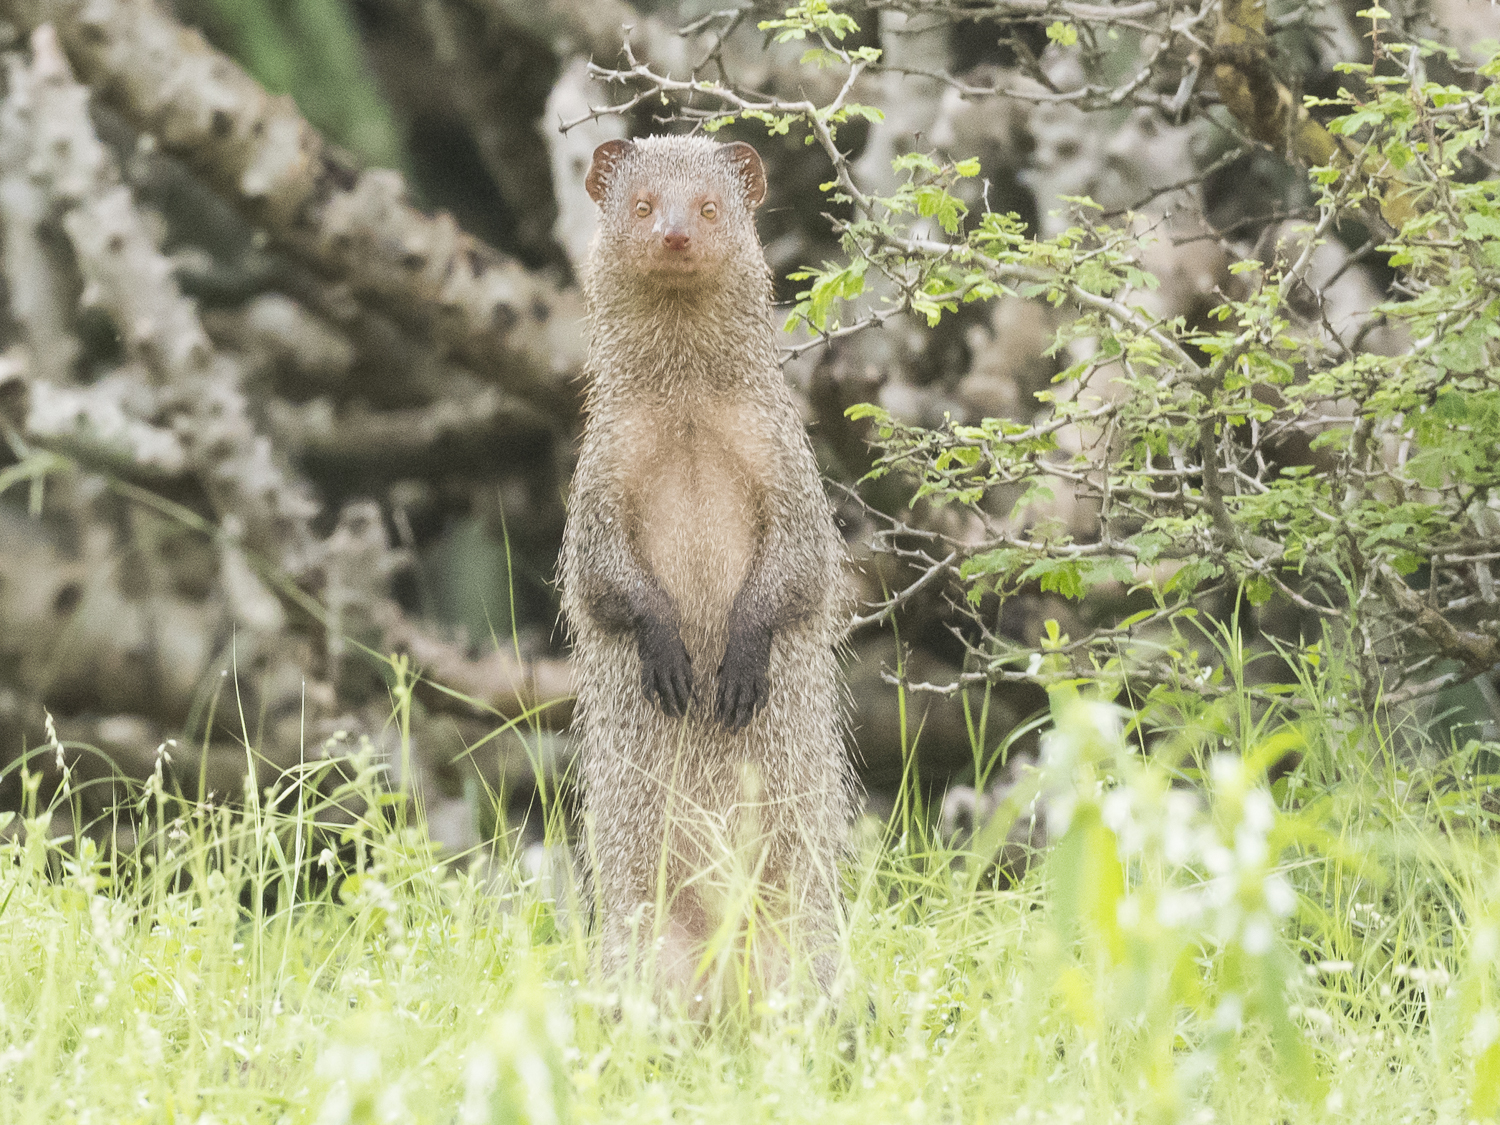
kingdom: Animalia
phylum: Chordata
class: Mammalia
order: Carnivora
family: Herpestidae
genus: Herpestes
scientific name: Herpestes javanicus
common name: Small asian mongoose
